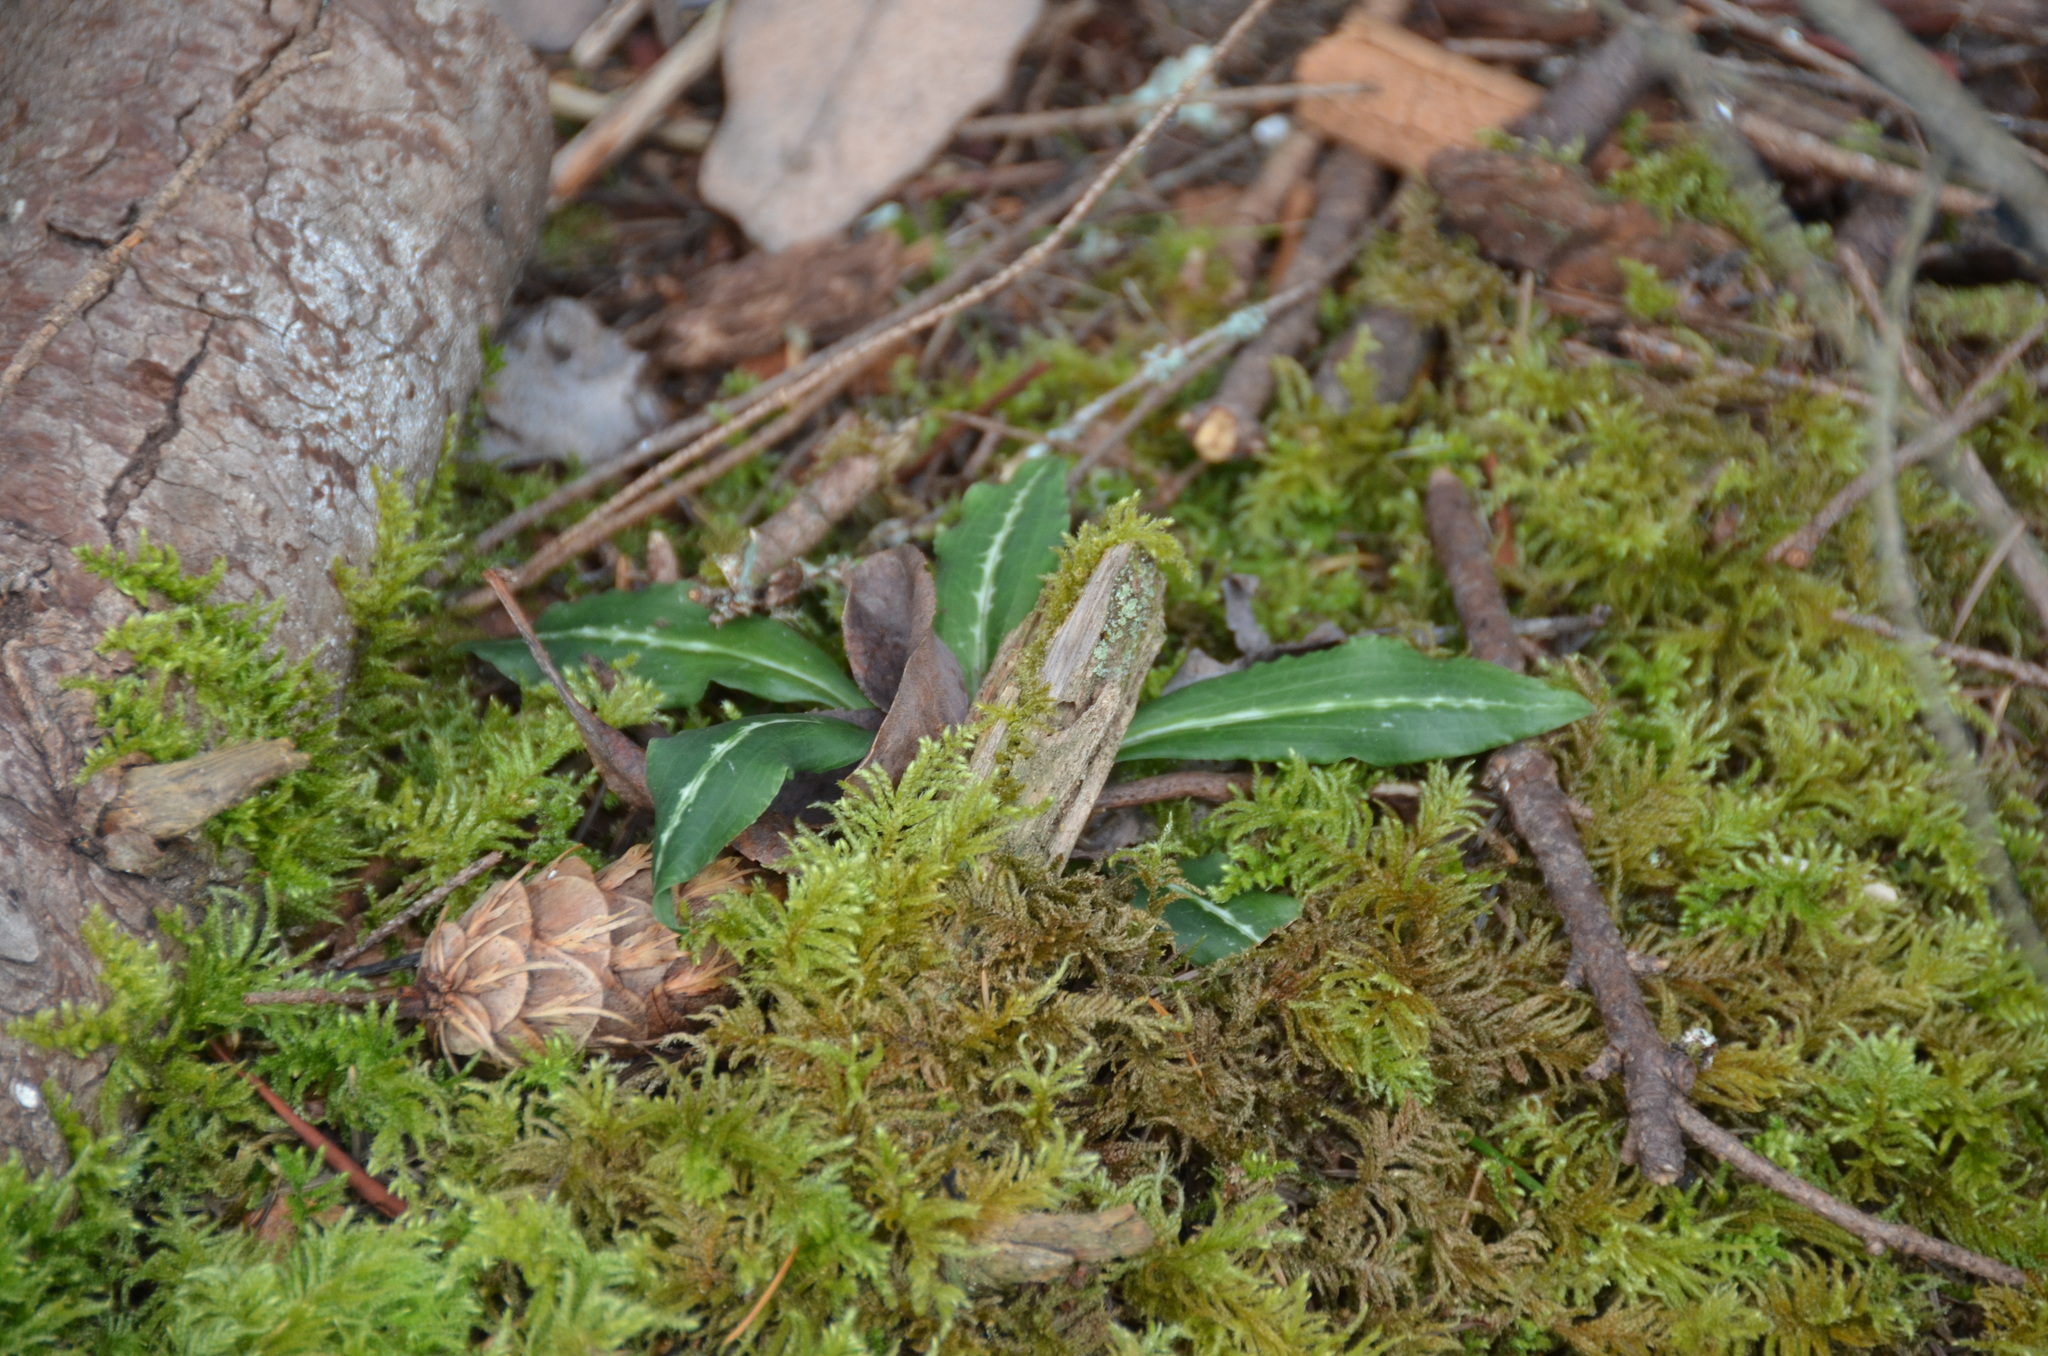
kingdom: Plantae
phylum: Tracheophyta
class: Liliopsida
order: Asparagales
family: Orchidaceae
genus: Goodyera
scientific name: Goodyera oblongifolia
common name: Giant rattlesnake-plantain
